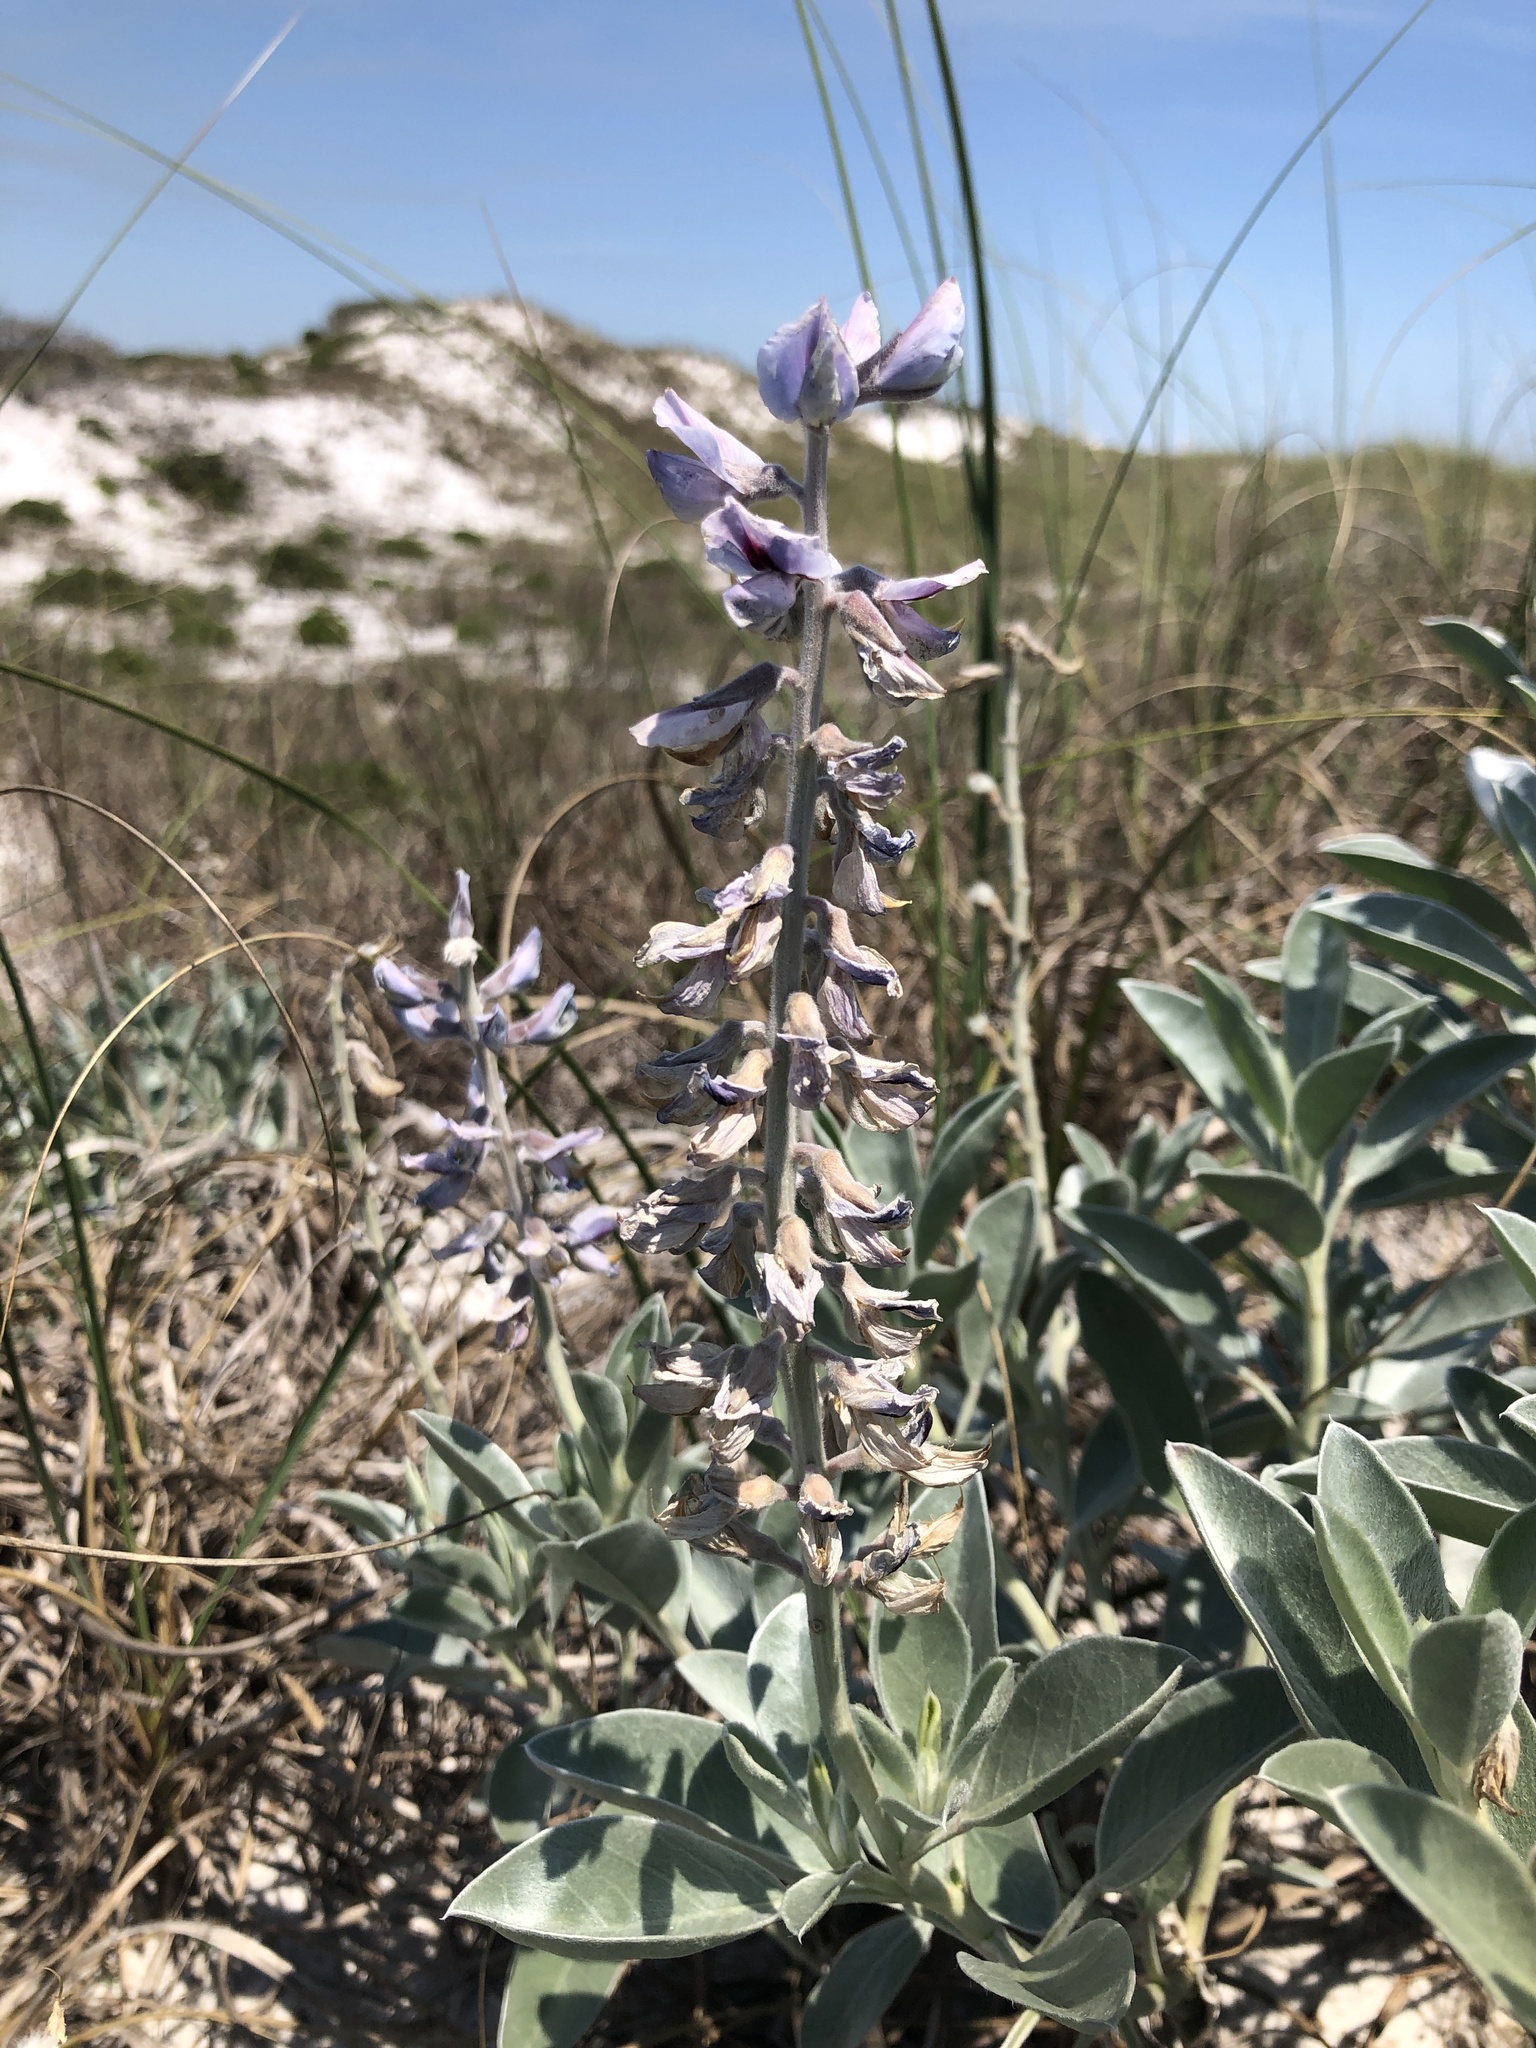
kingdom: Plantae
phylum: Tracheophyta
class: Magnoliopsida
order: Fabales
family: Fabaceae
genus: Lupinus
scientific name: Lupinus westianus
